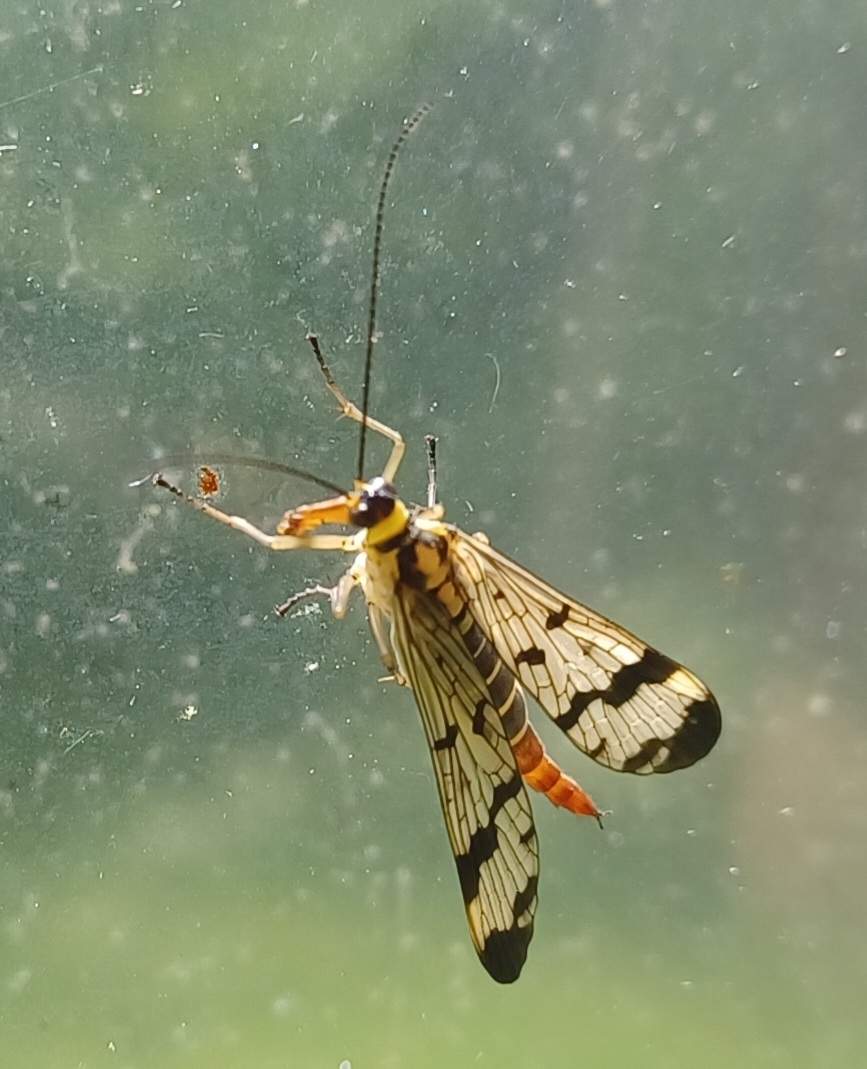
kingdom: Animalia
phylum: Arthropoda
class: Insecta
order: Mecoptera
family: Panorpidae
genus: Panorpa
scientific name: Panorpa communis
